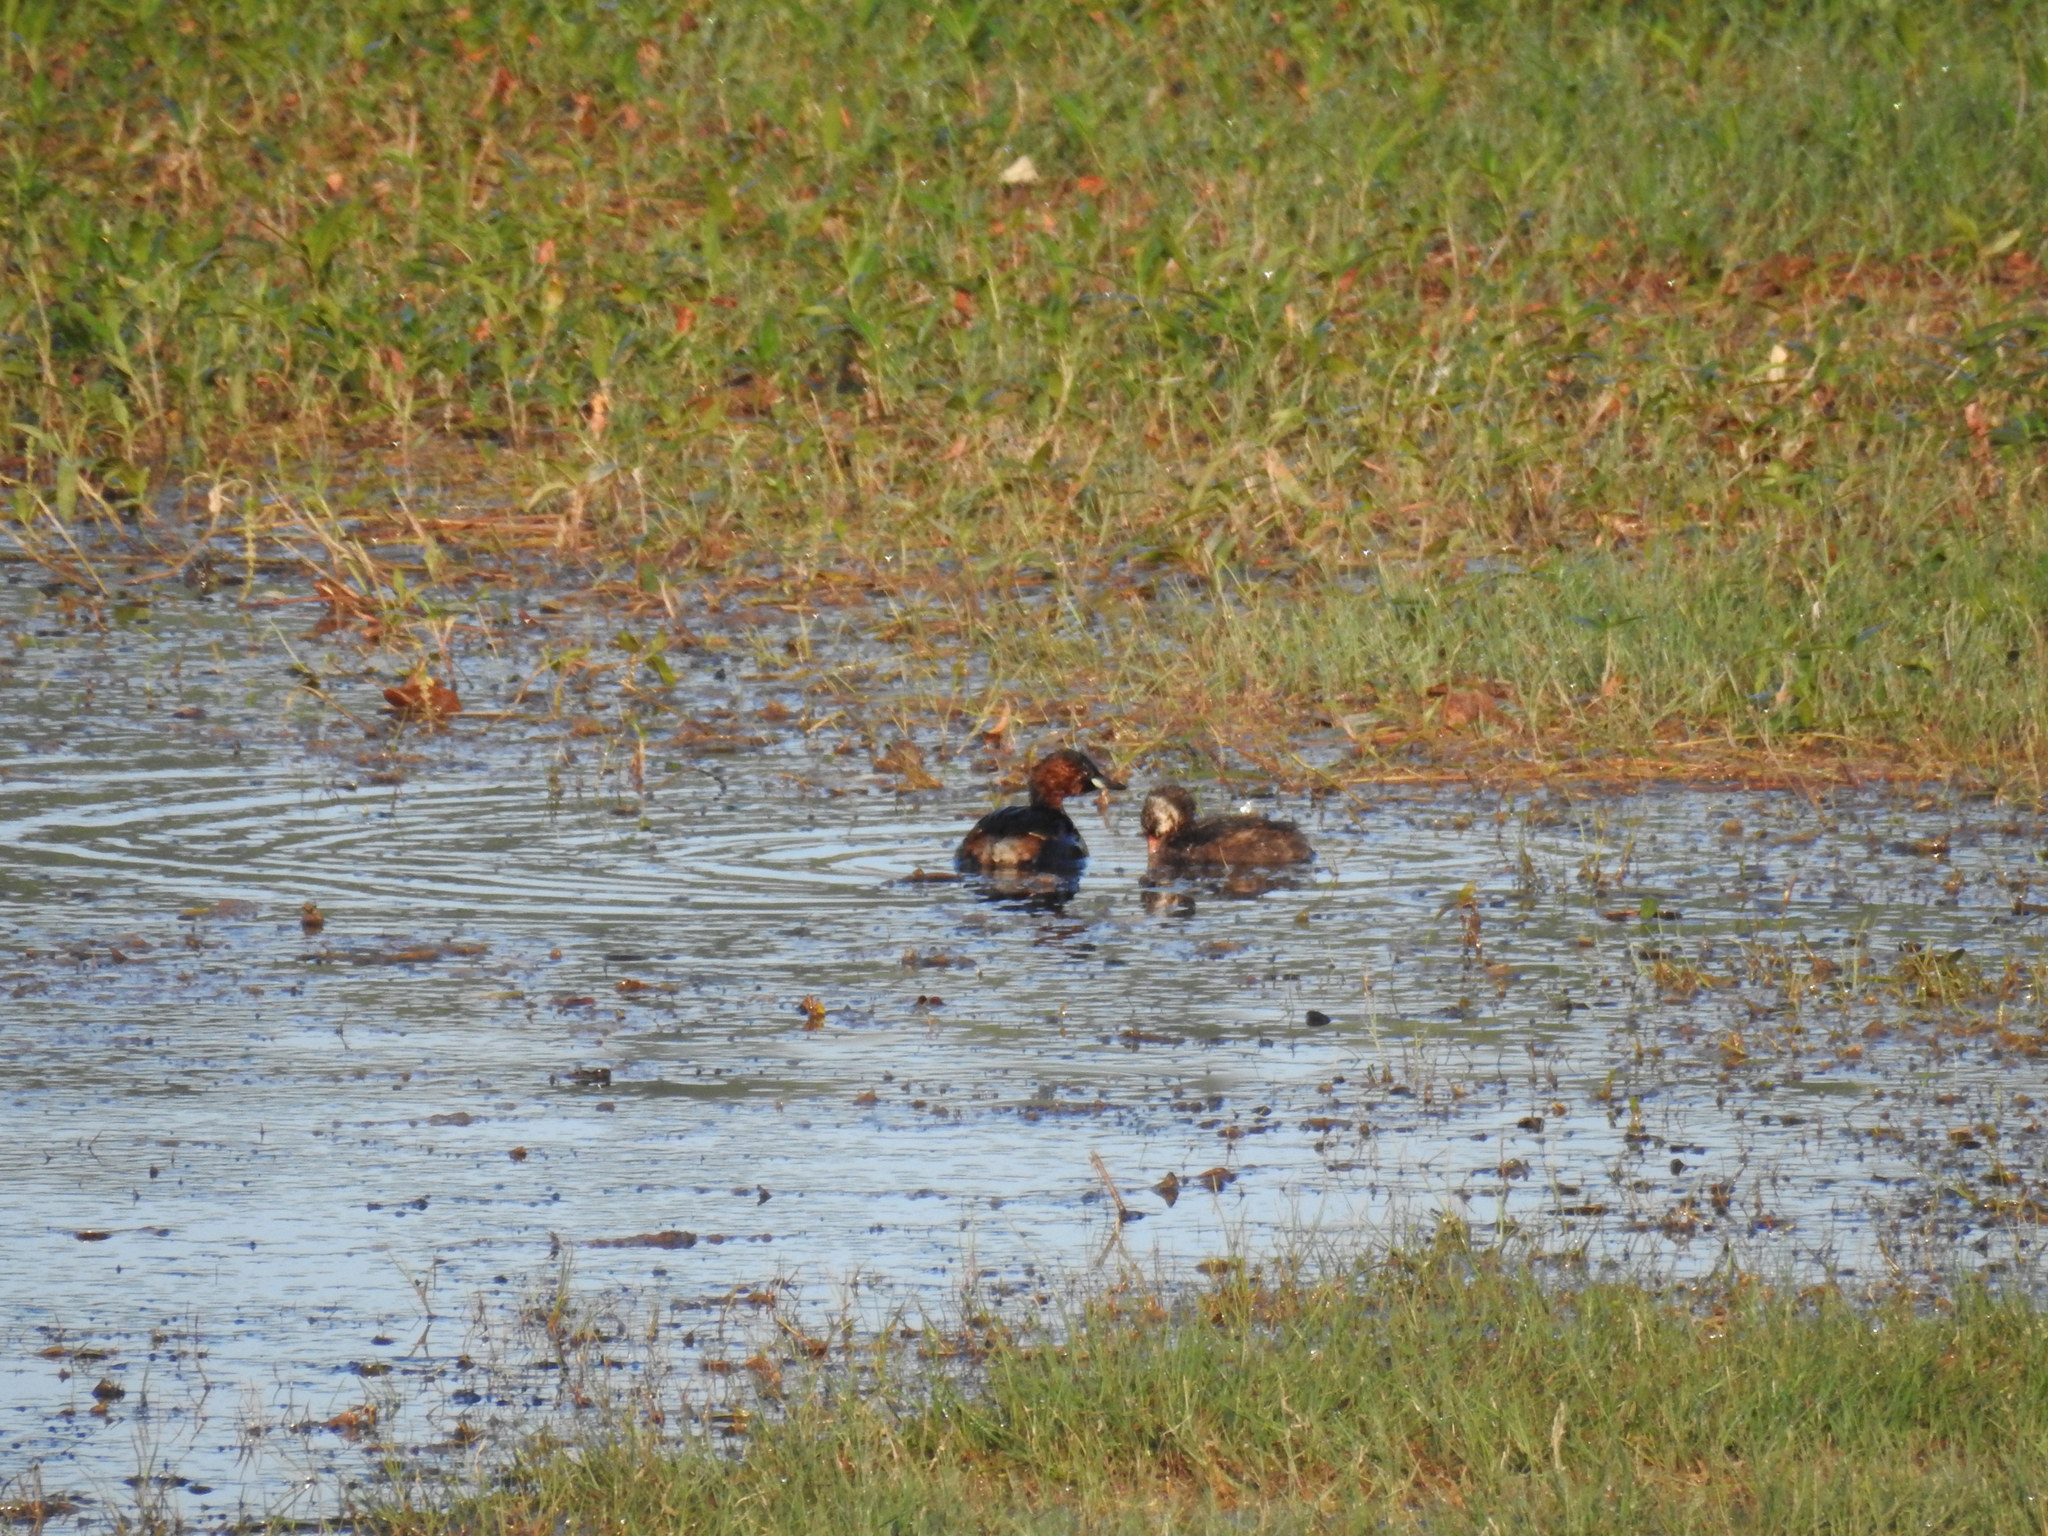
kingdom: Animalia
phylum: Chordata
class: Aves
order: Podicipediformes
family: Podicipedidae
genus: Tachybaptus
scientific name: Tachybaptus ruficollis
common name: Little grebe
